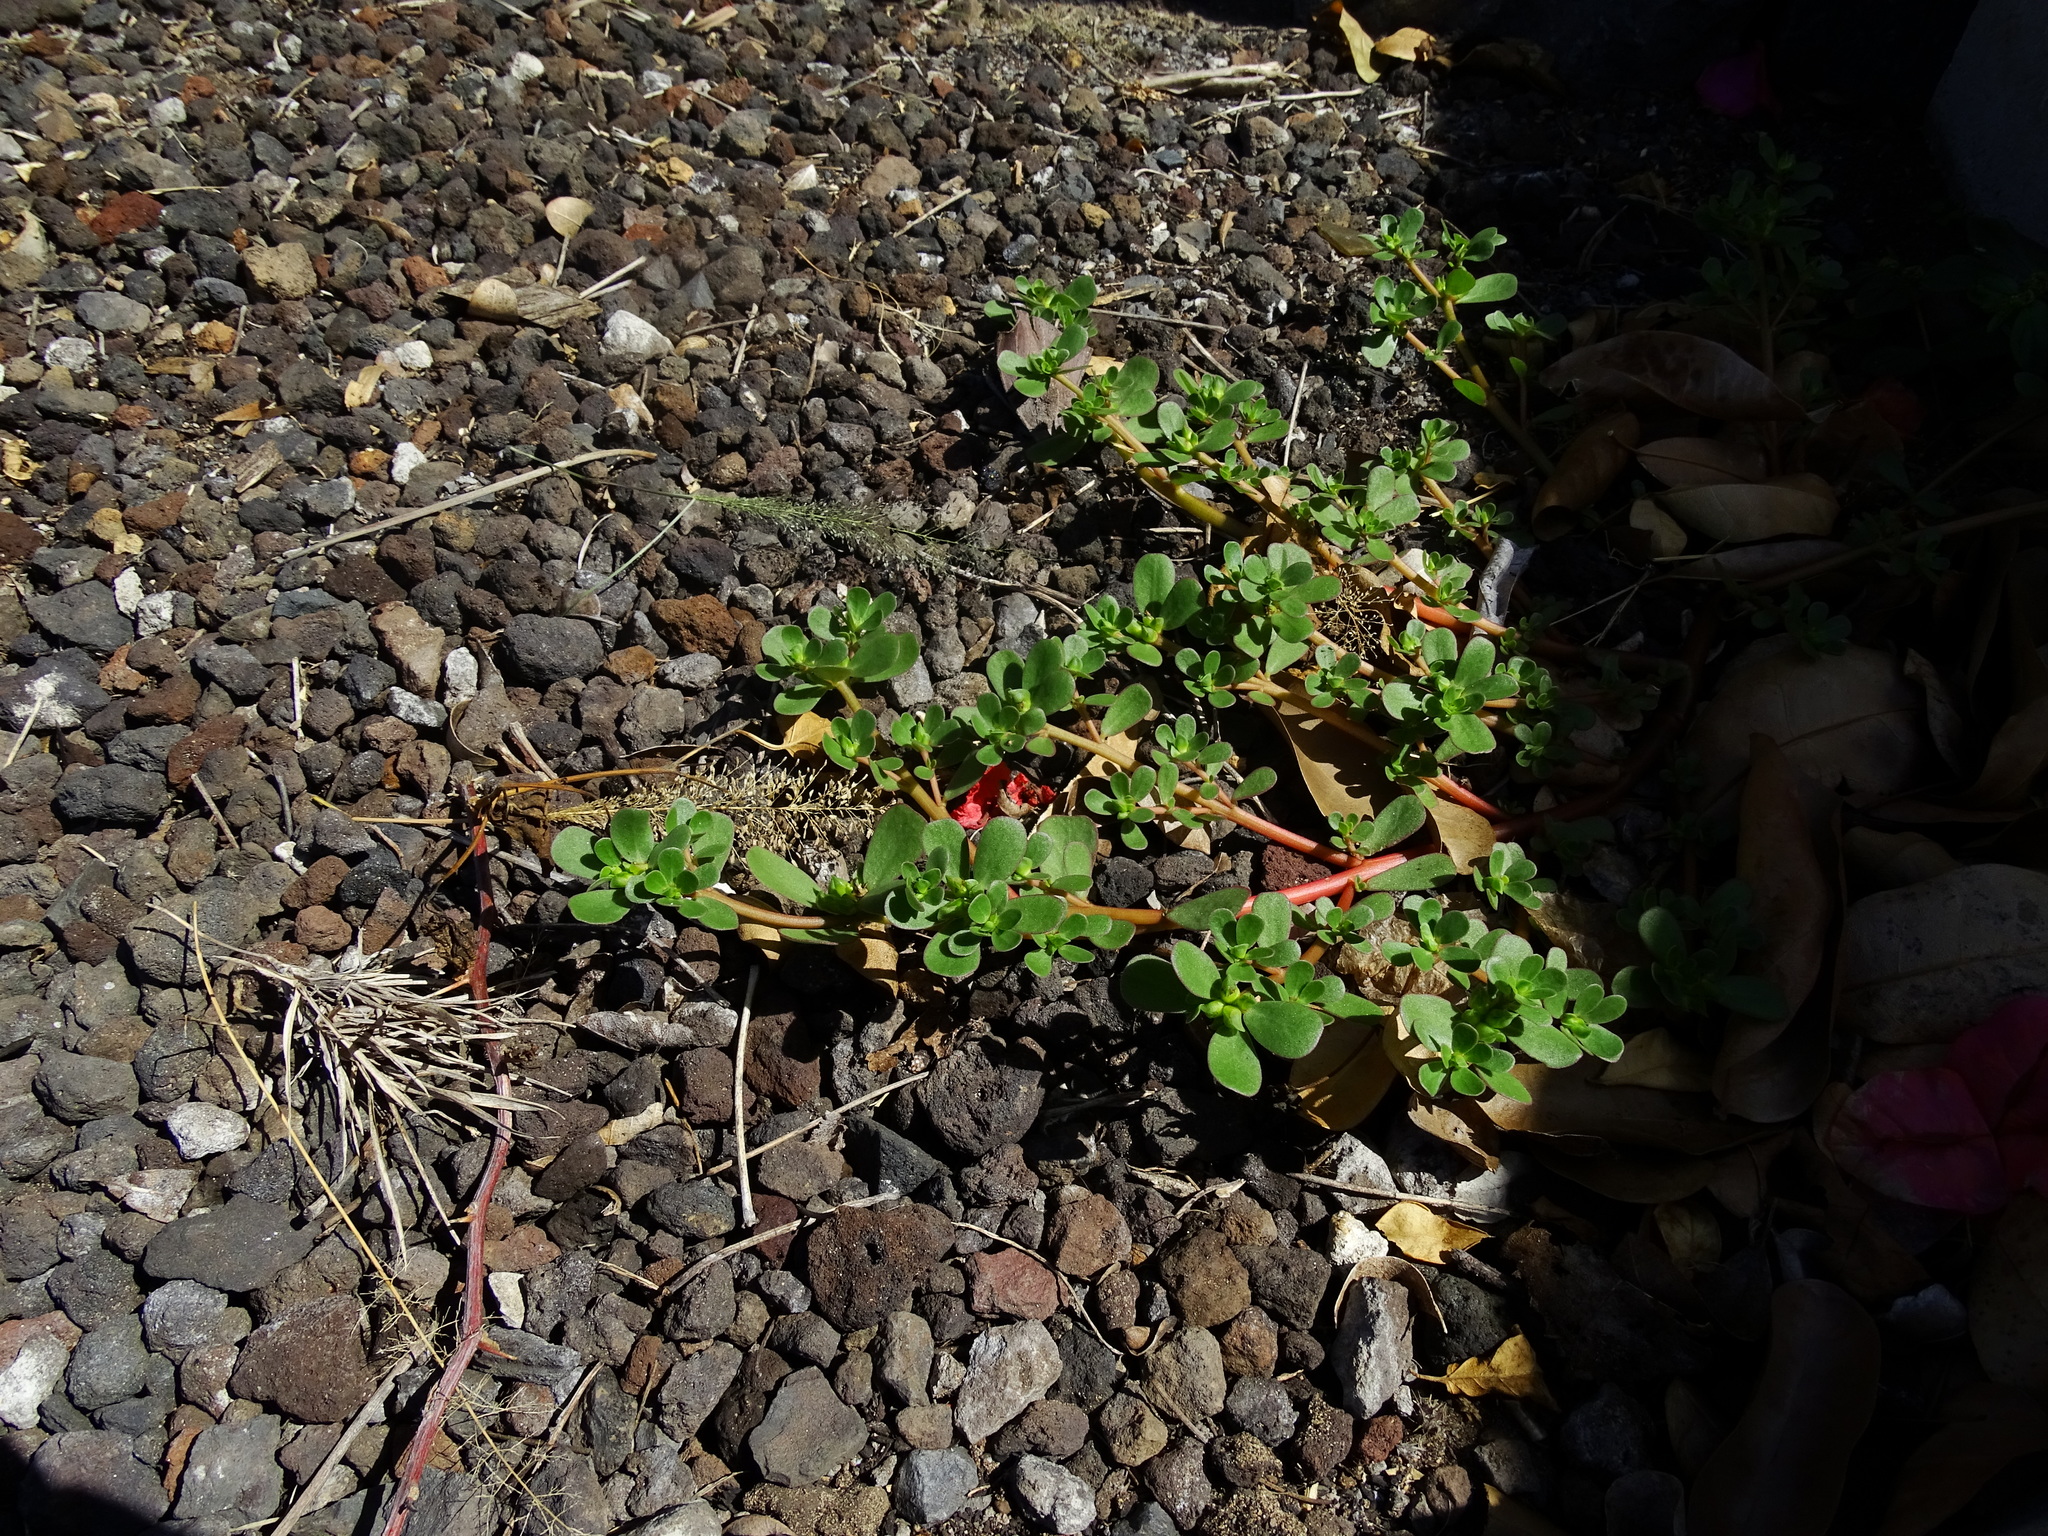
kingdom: Plantae
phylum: Tracheophyta
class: Magnoliopsida
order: Caryophyllales
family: Portulacaceae
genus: Portulaca
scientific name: Portulaca oleracea
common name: Common purslane
